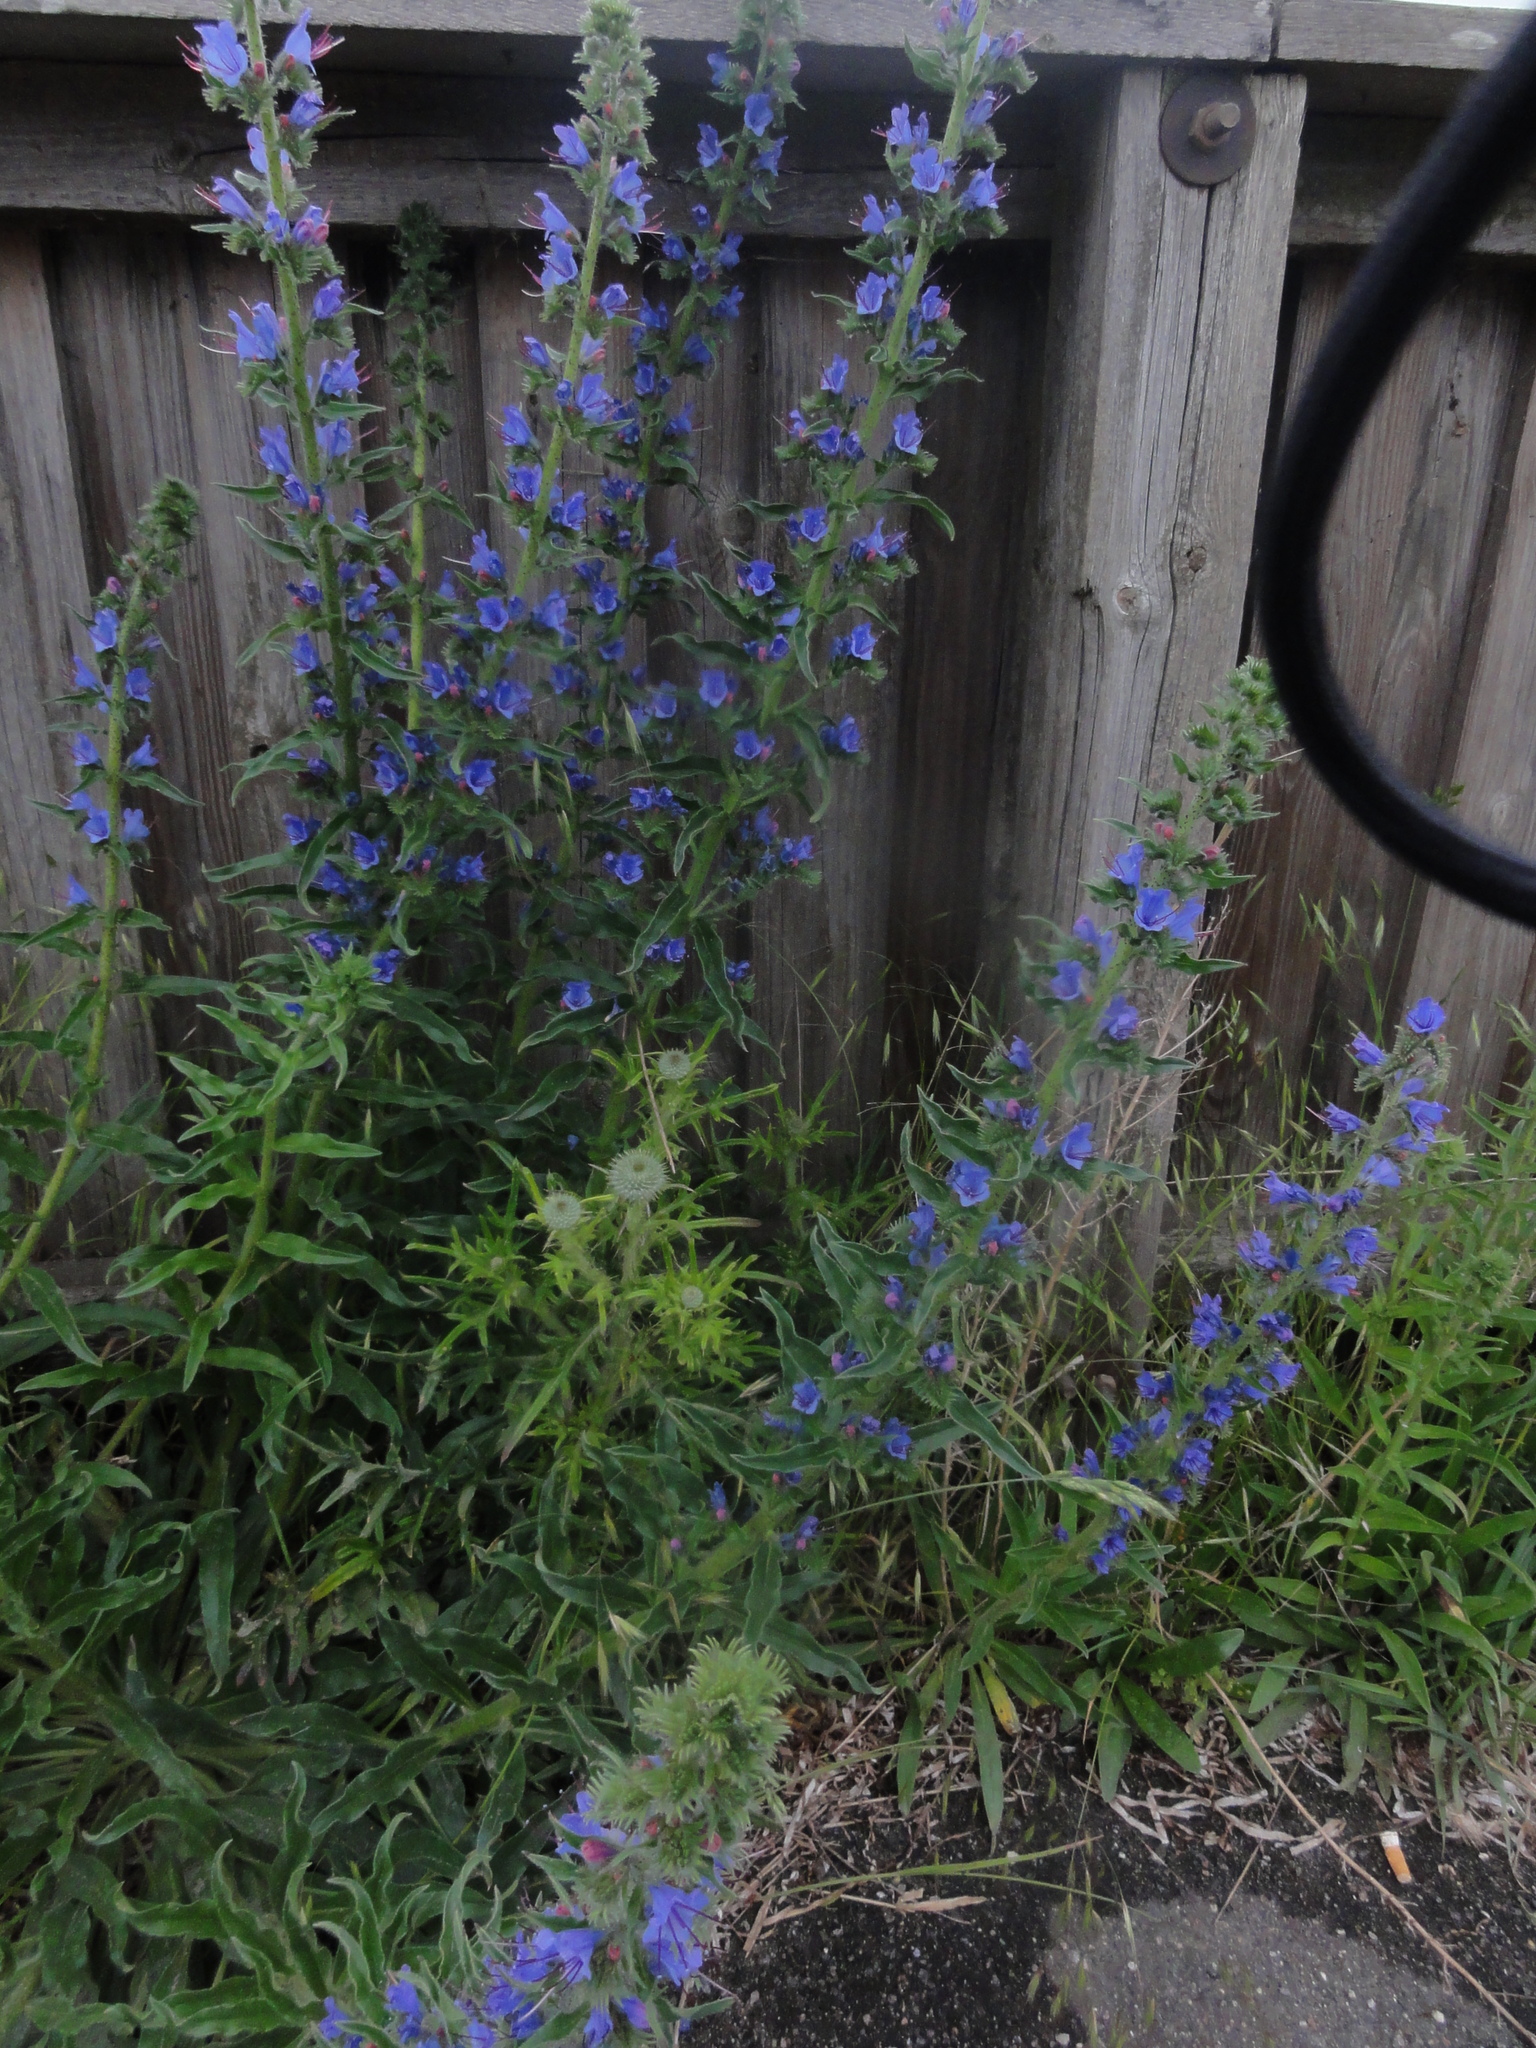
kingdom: Plantae
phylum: Tracheophyta
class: Magnoliopsida
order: Boraginales
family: Boraginaceae
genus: Echium
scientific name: Echium vulgare
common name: Common viper's bugloss
